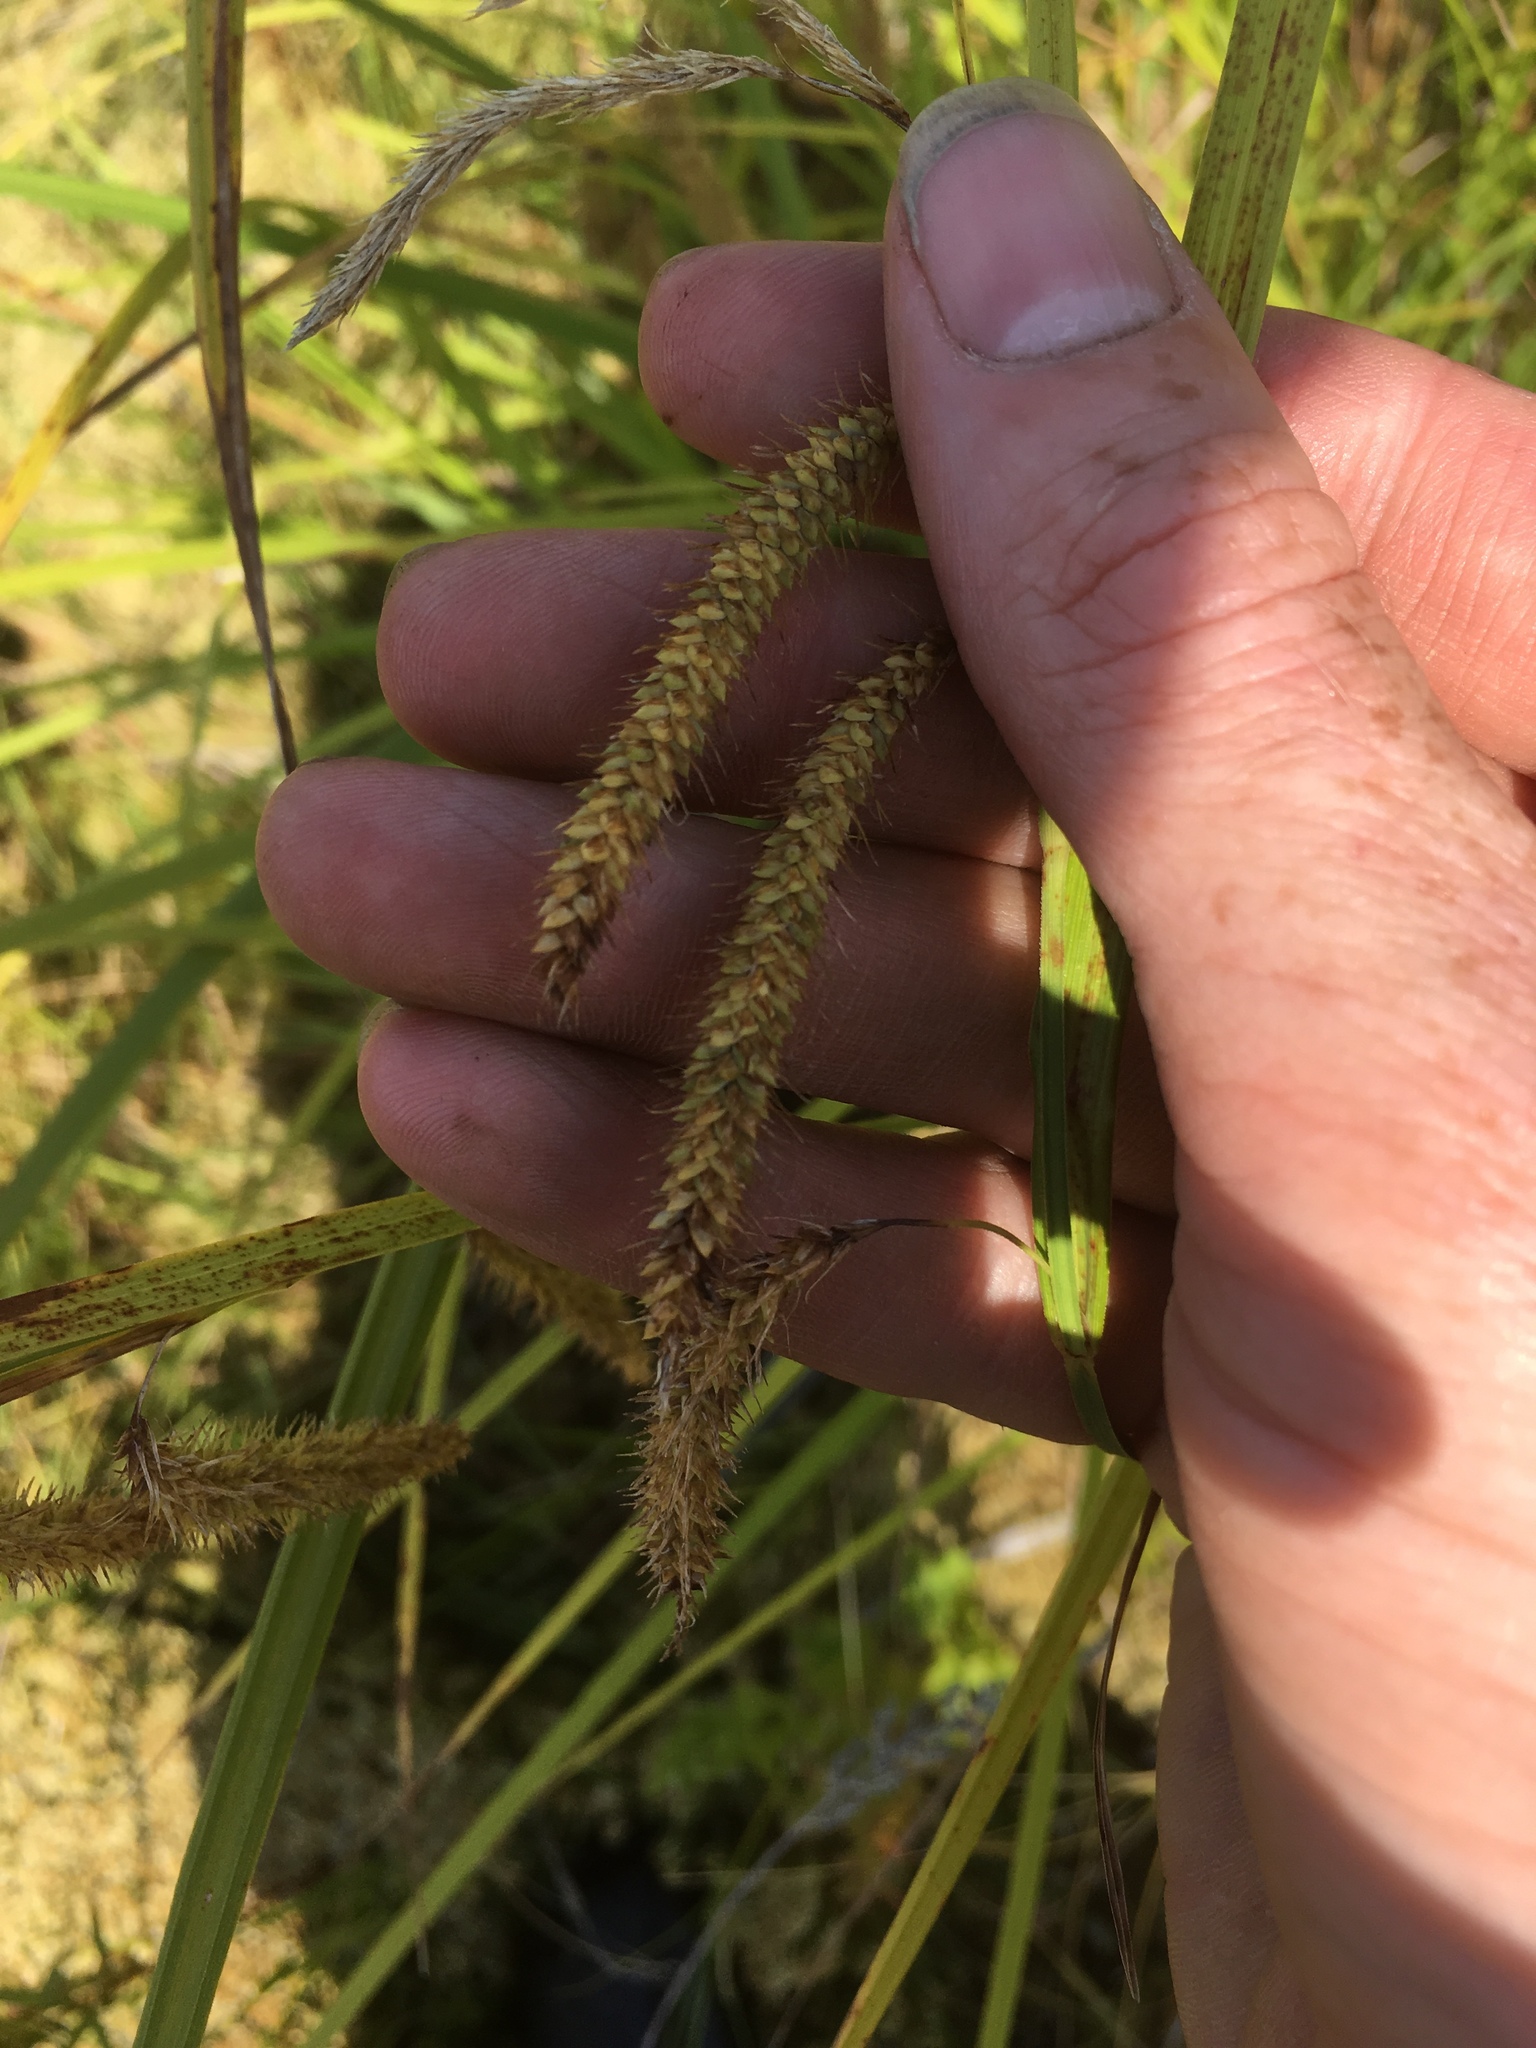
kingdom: Plantae
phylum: Tracheophyta
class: Liliopsida
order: Poales
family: Cyperaceae
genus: Carex
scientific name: Carex gynandra
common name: Nodding sedge
